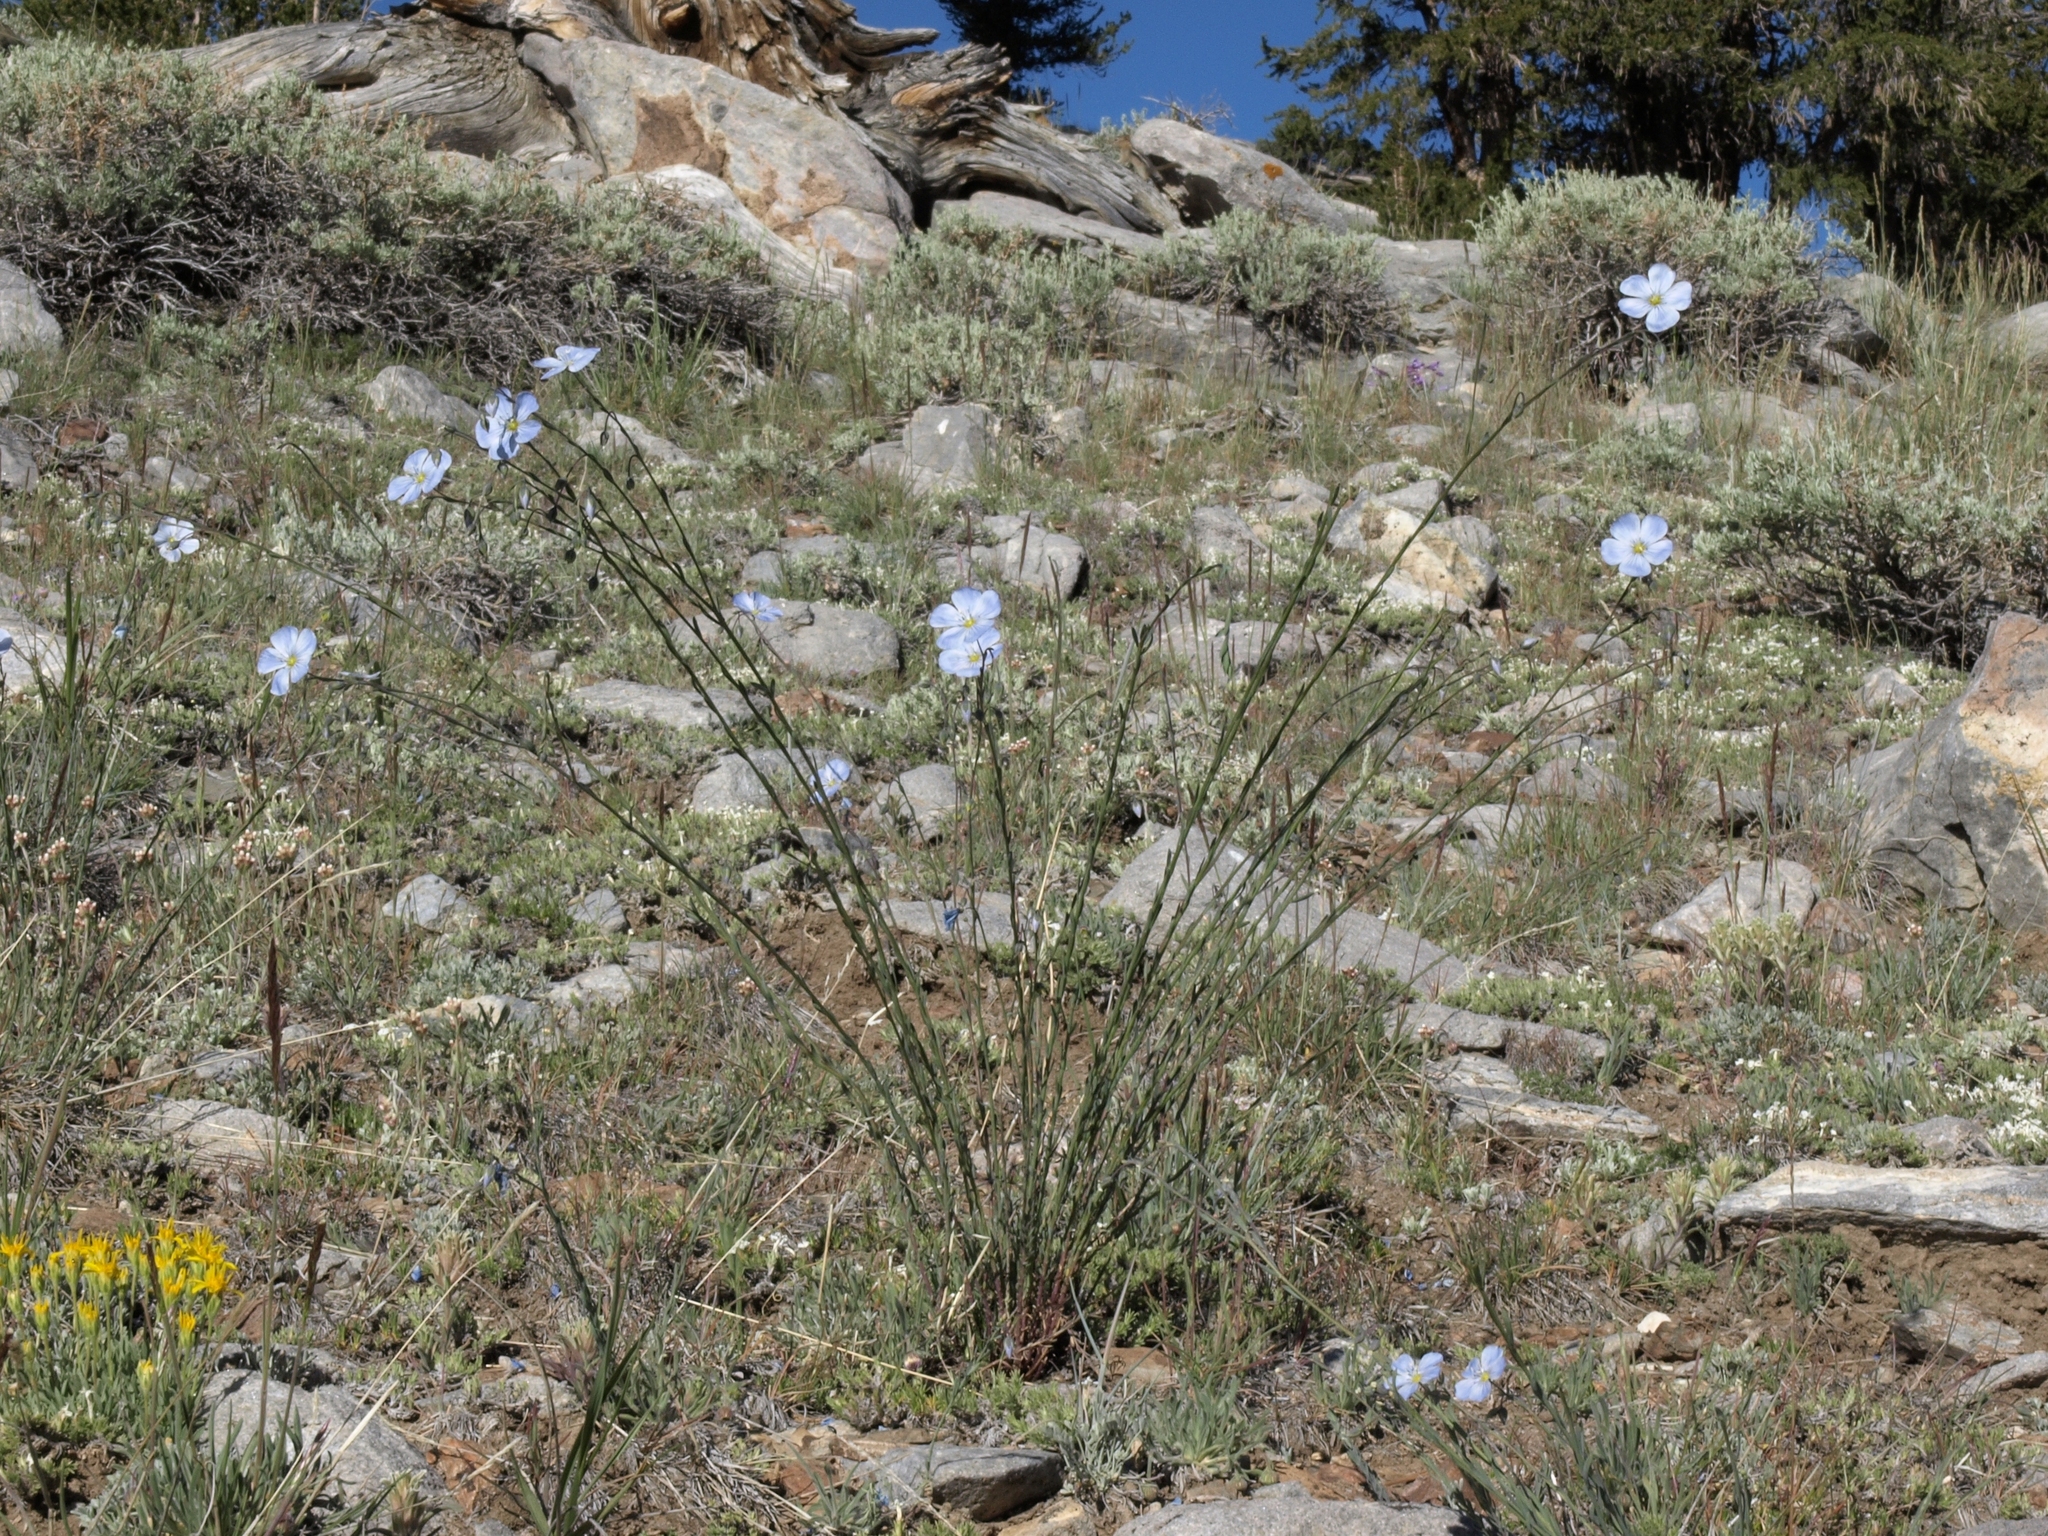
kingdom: Plantae
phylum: Tracheophyta
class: Magnoliopsida
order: Malpighiales
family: Linaceae
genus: Linum
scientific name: Linum lewisii
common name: Prairie flax
